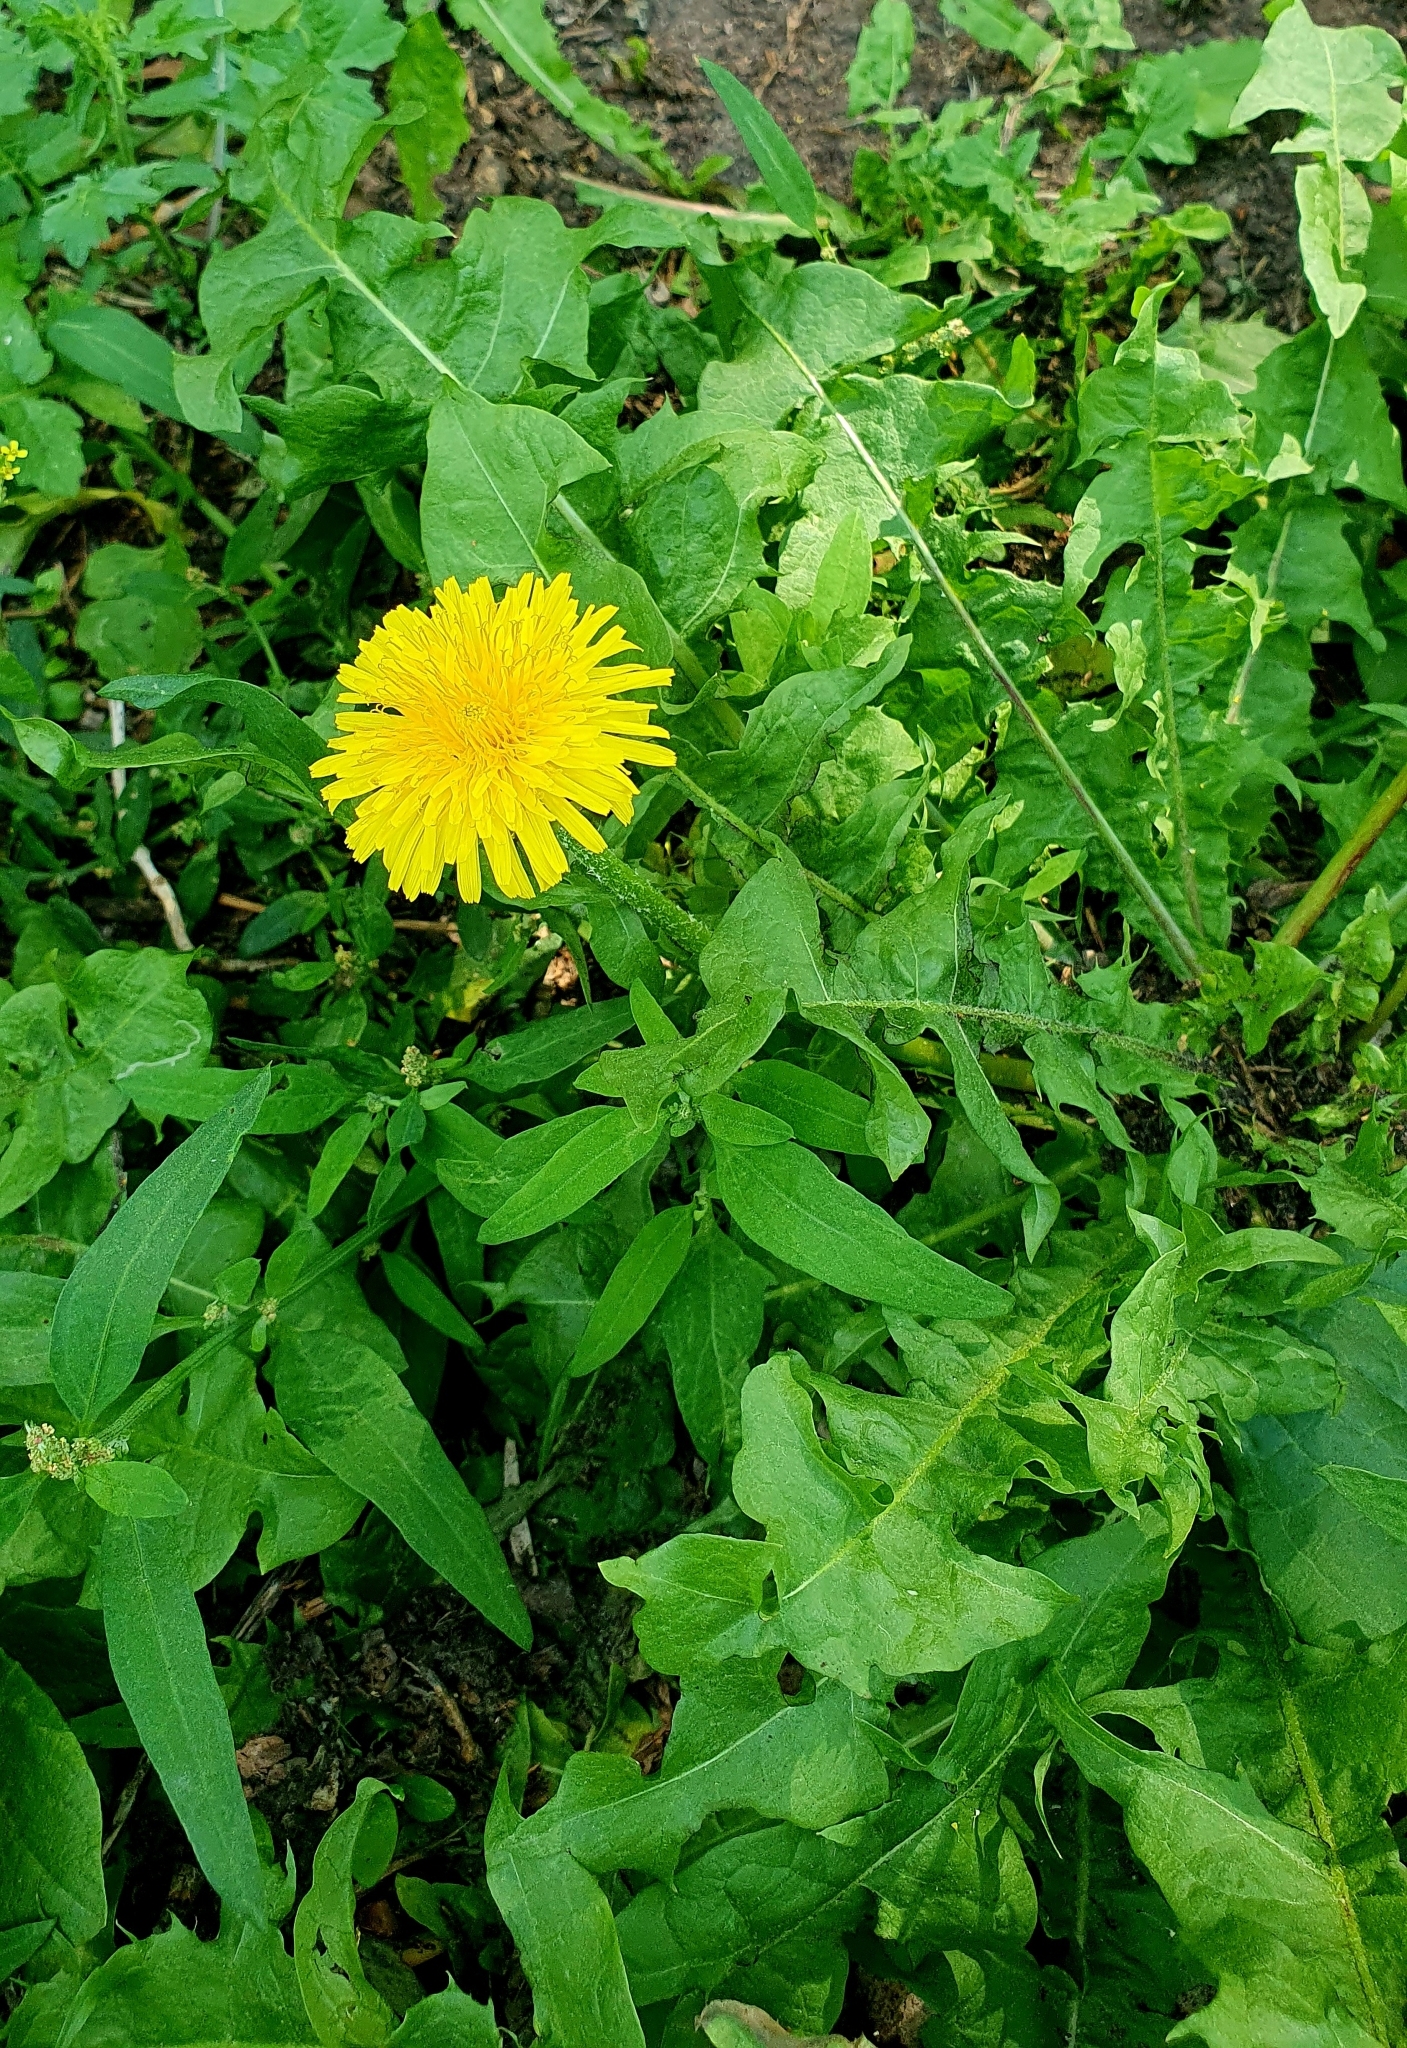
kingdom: Plantae
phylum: Tracheophyta
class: Magnoliopsida
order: Asterales
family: Asteraceae
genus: Taraxacum
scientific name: Taraxacum officinale
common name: Common dandelion
